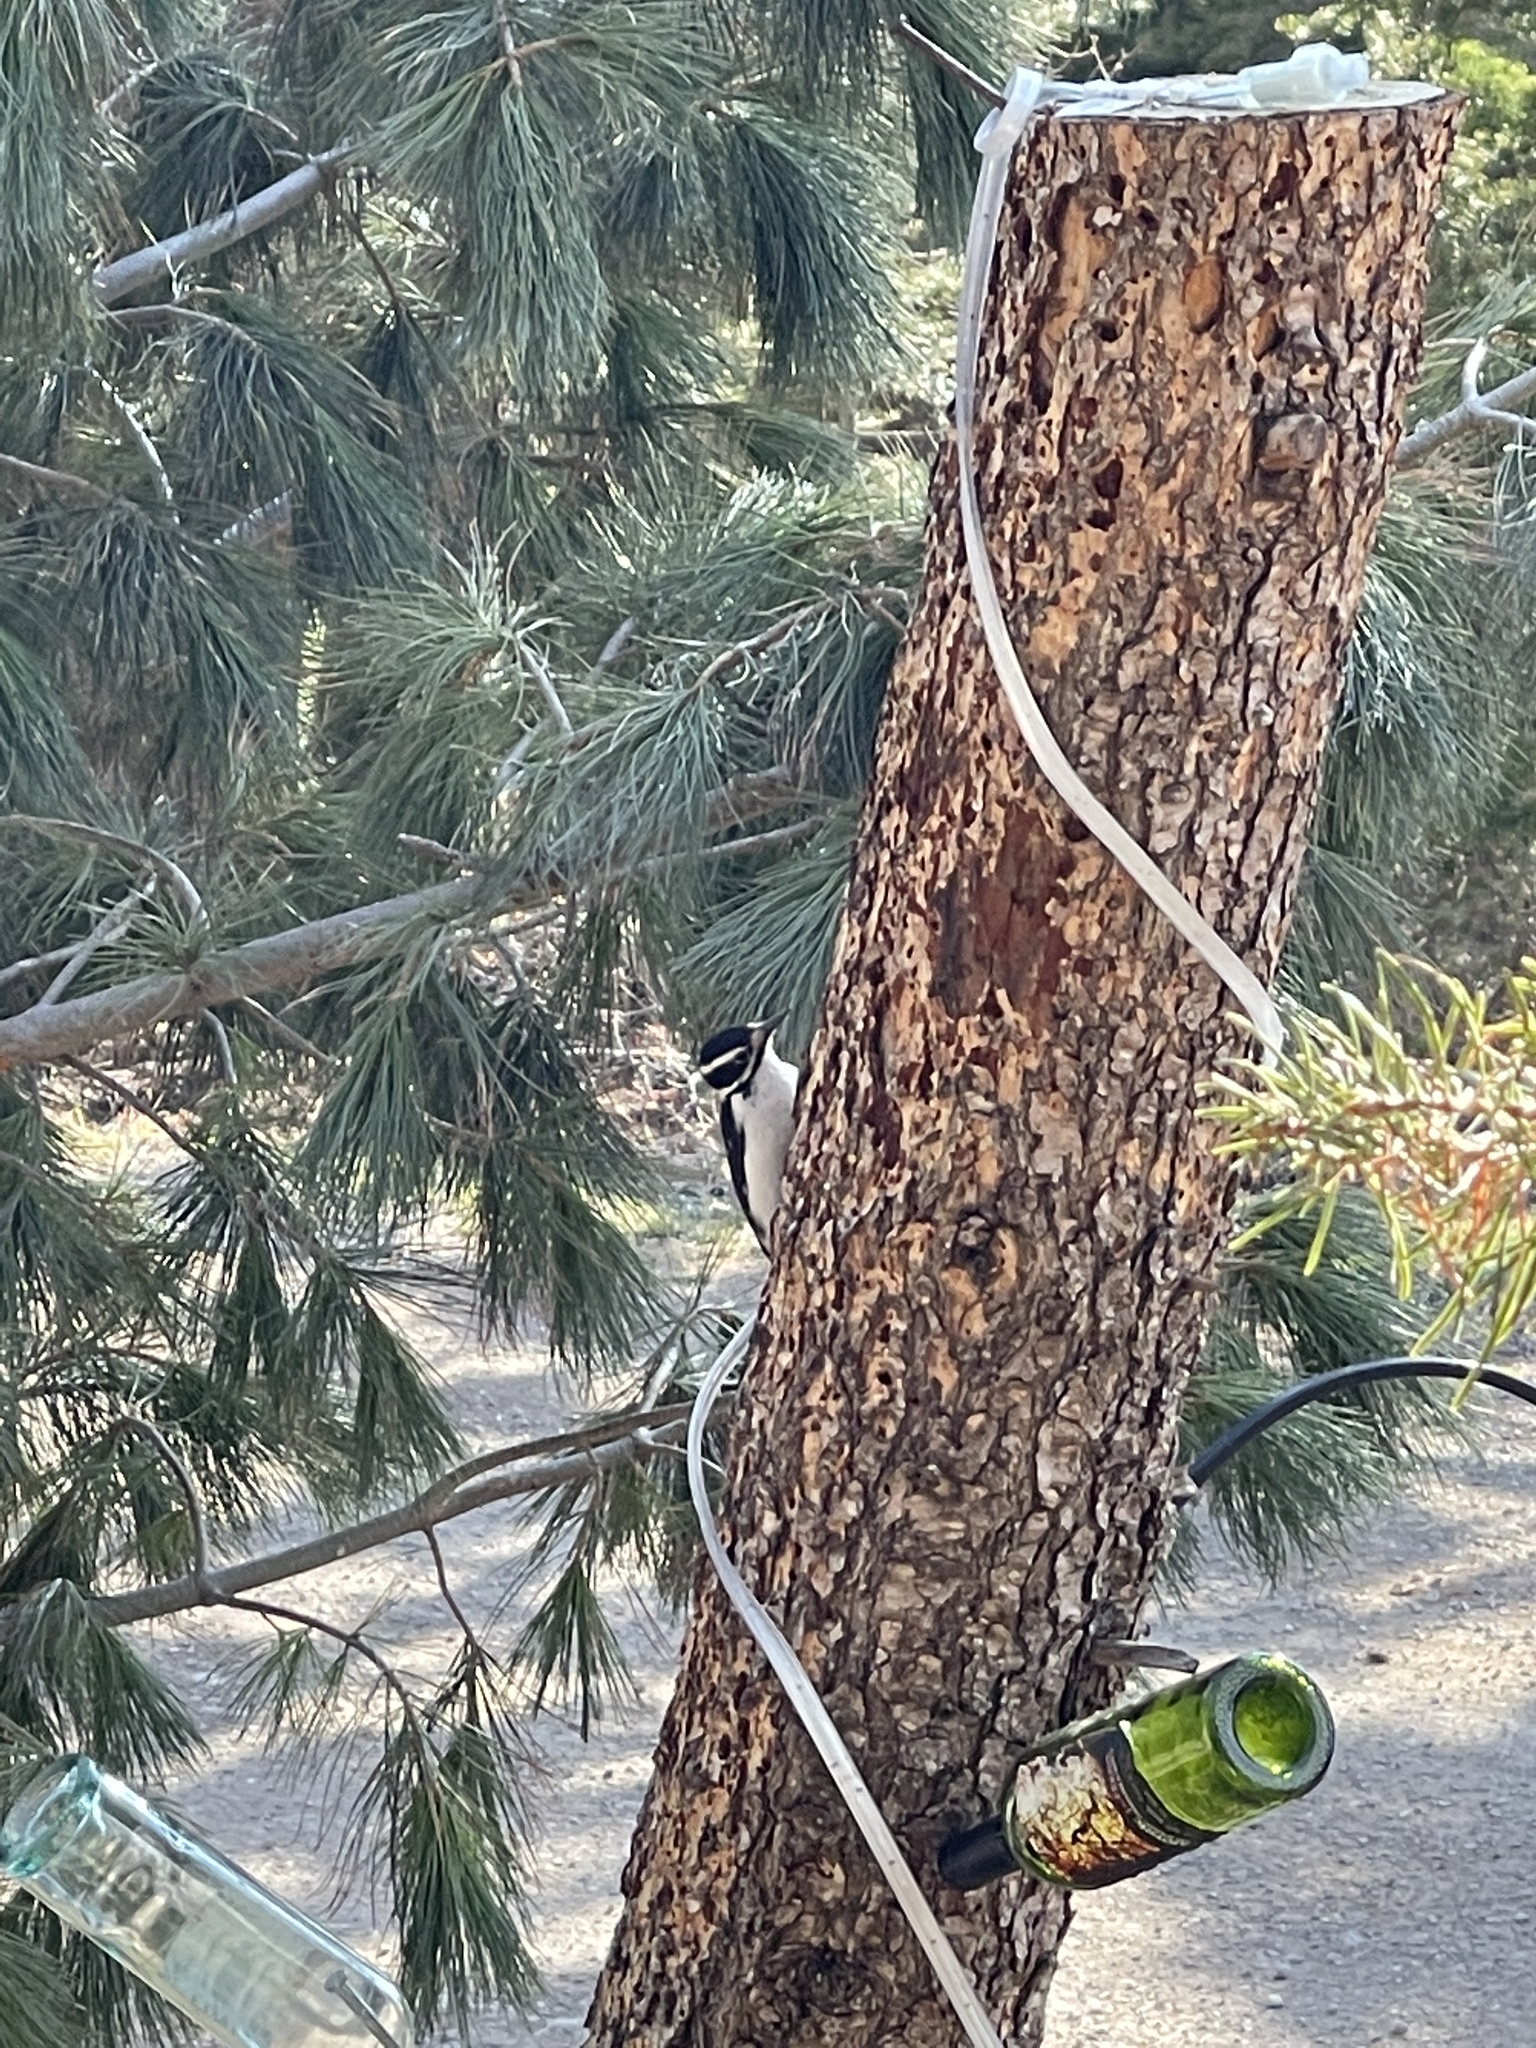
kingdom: Animalia
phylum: Chordata
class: Aves
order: Piciformes
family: Picidae
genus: Leuconotopicus
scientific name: Leuconotopicus villosus
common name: Hairy woodpecker
